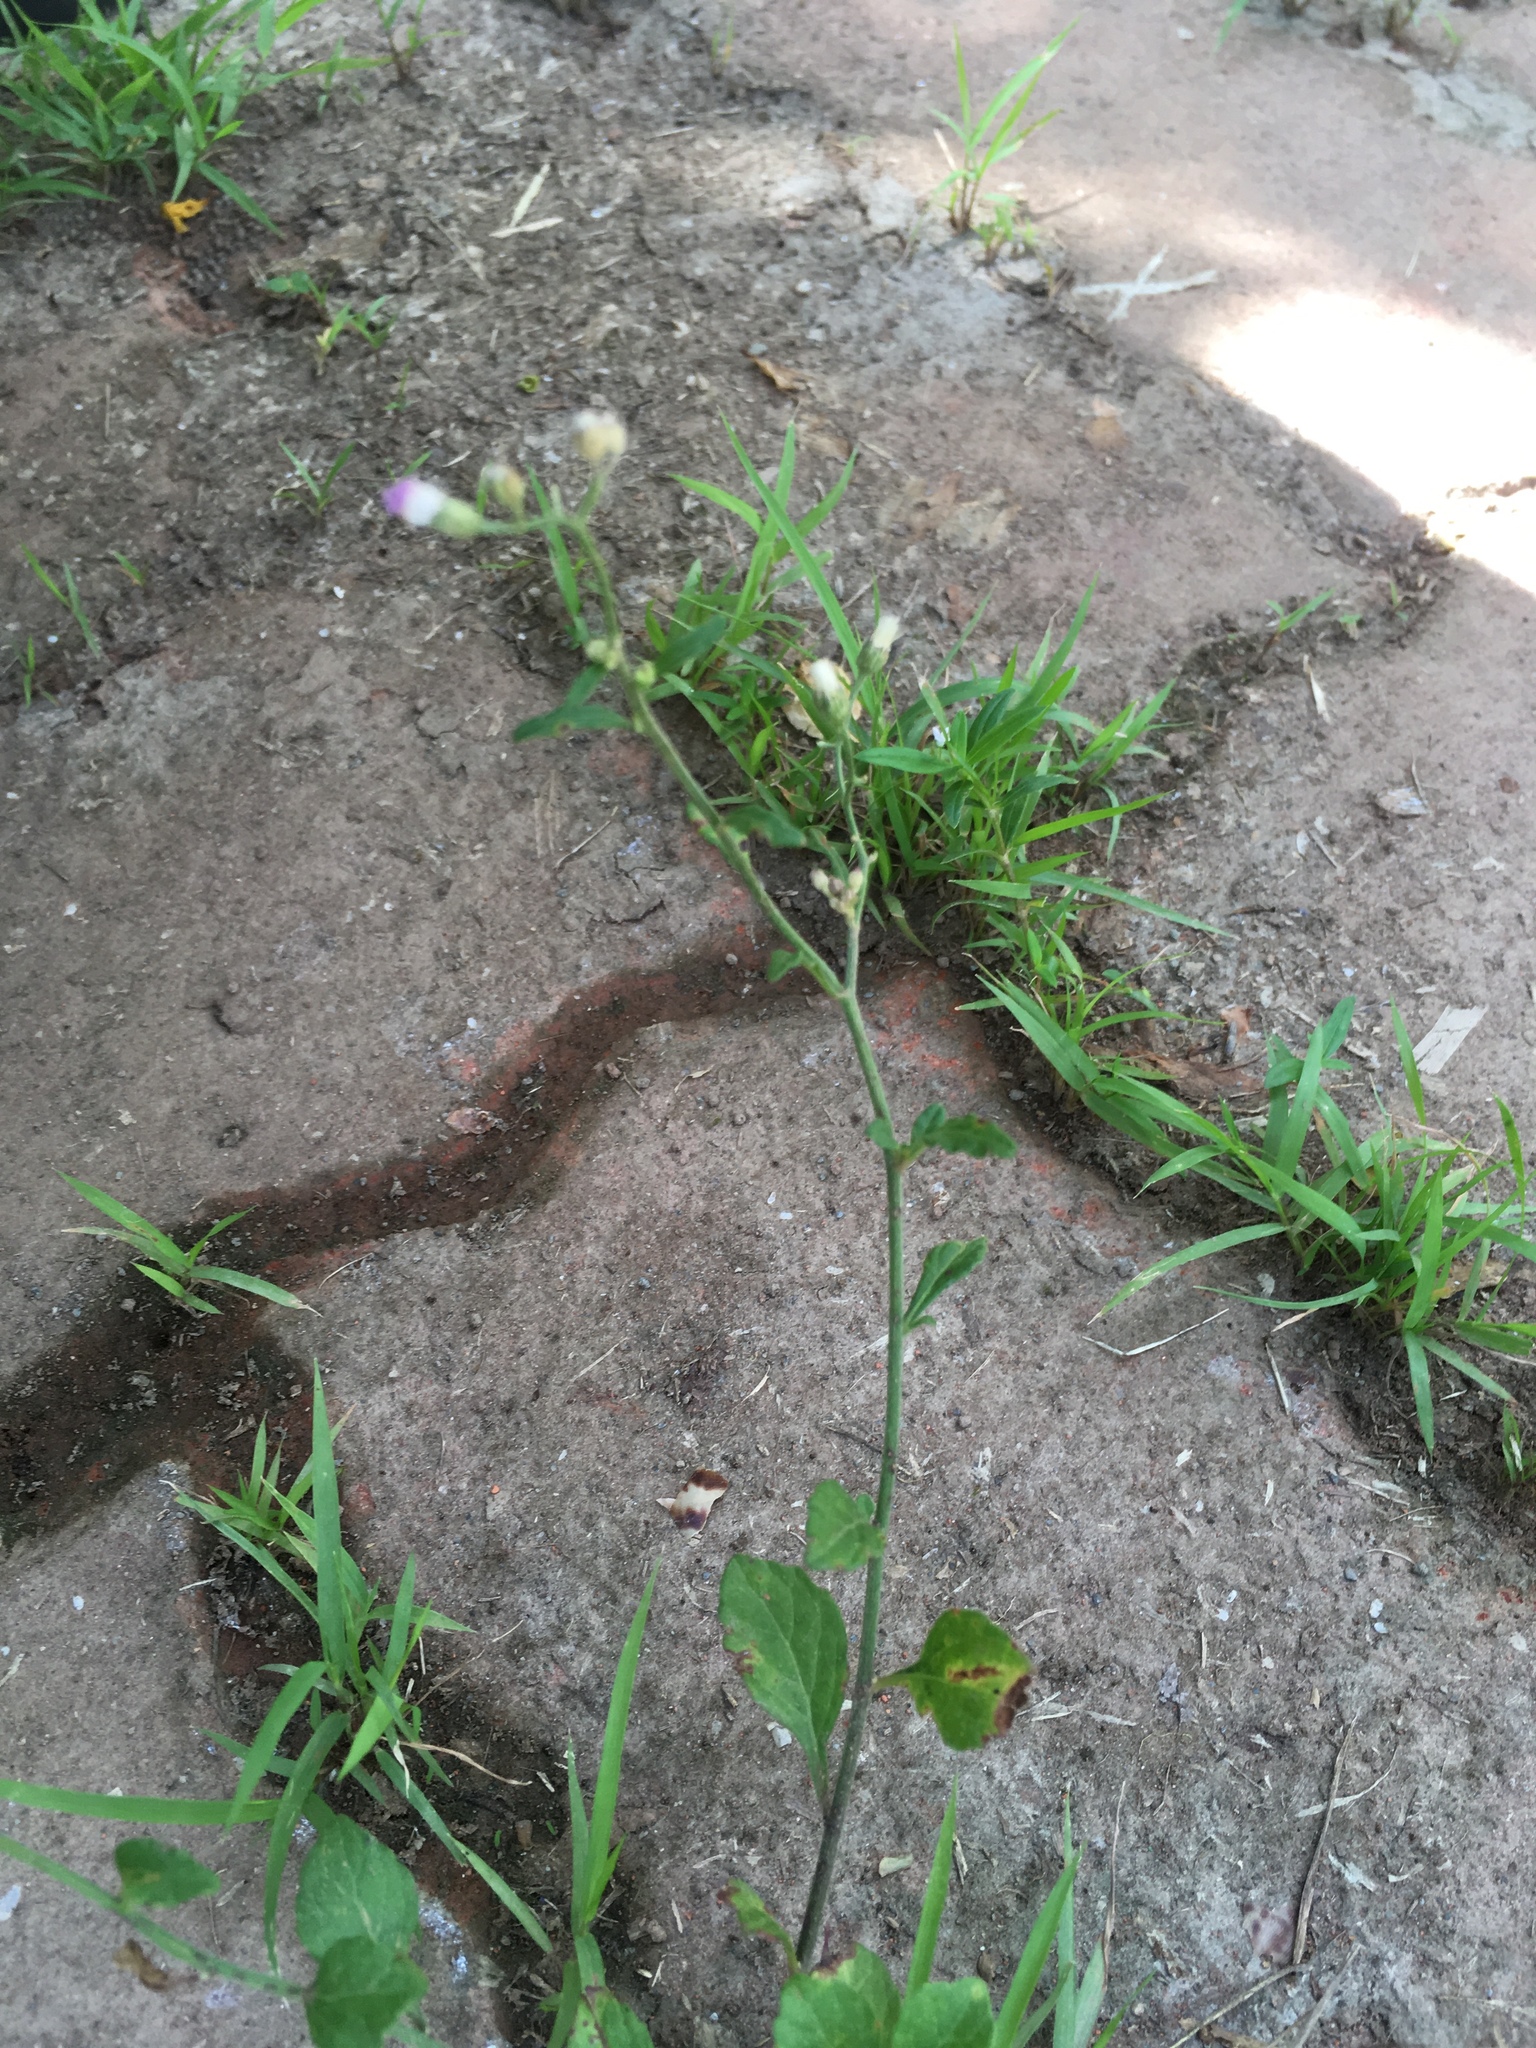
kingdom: Plantae
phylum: Tracheophyta
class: Magnoliopsida
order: Asterales
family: Asteraceae
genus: Cyanthillium
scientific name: Cyanthillium cinereum
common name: Little ironweed
